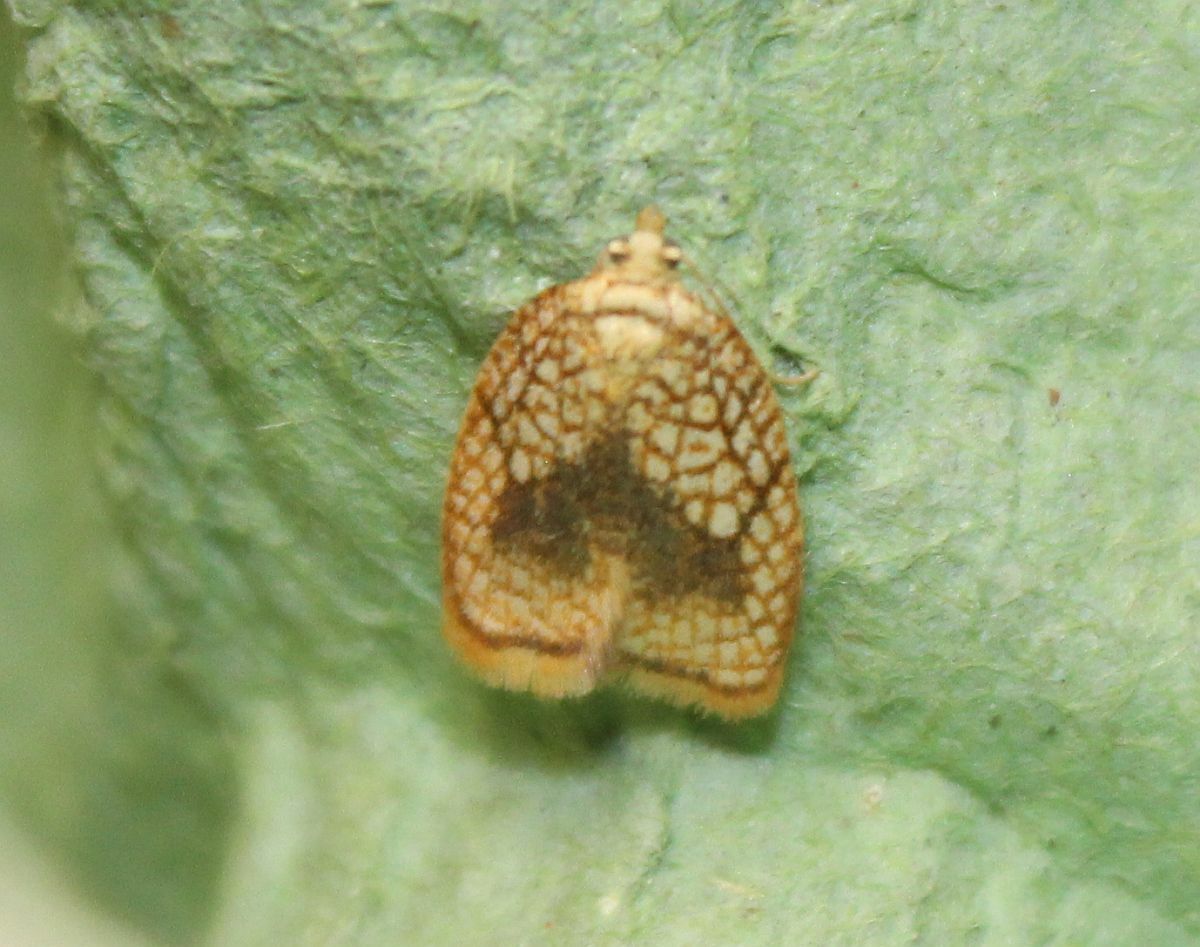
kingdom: Animalia
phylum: Arthropoda
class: Insecta
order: Lepidoptera
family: Tortricidae
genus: Acleris
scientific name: Acleris forsskaleana
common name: Maple button
